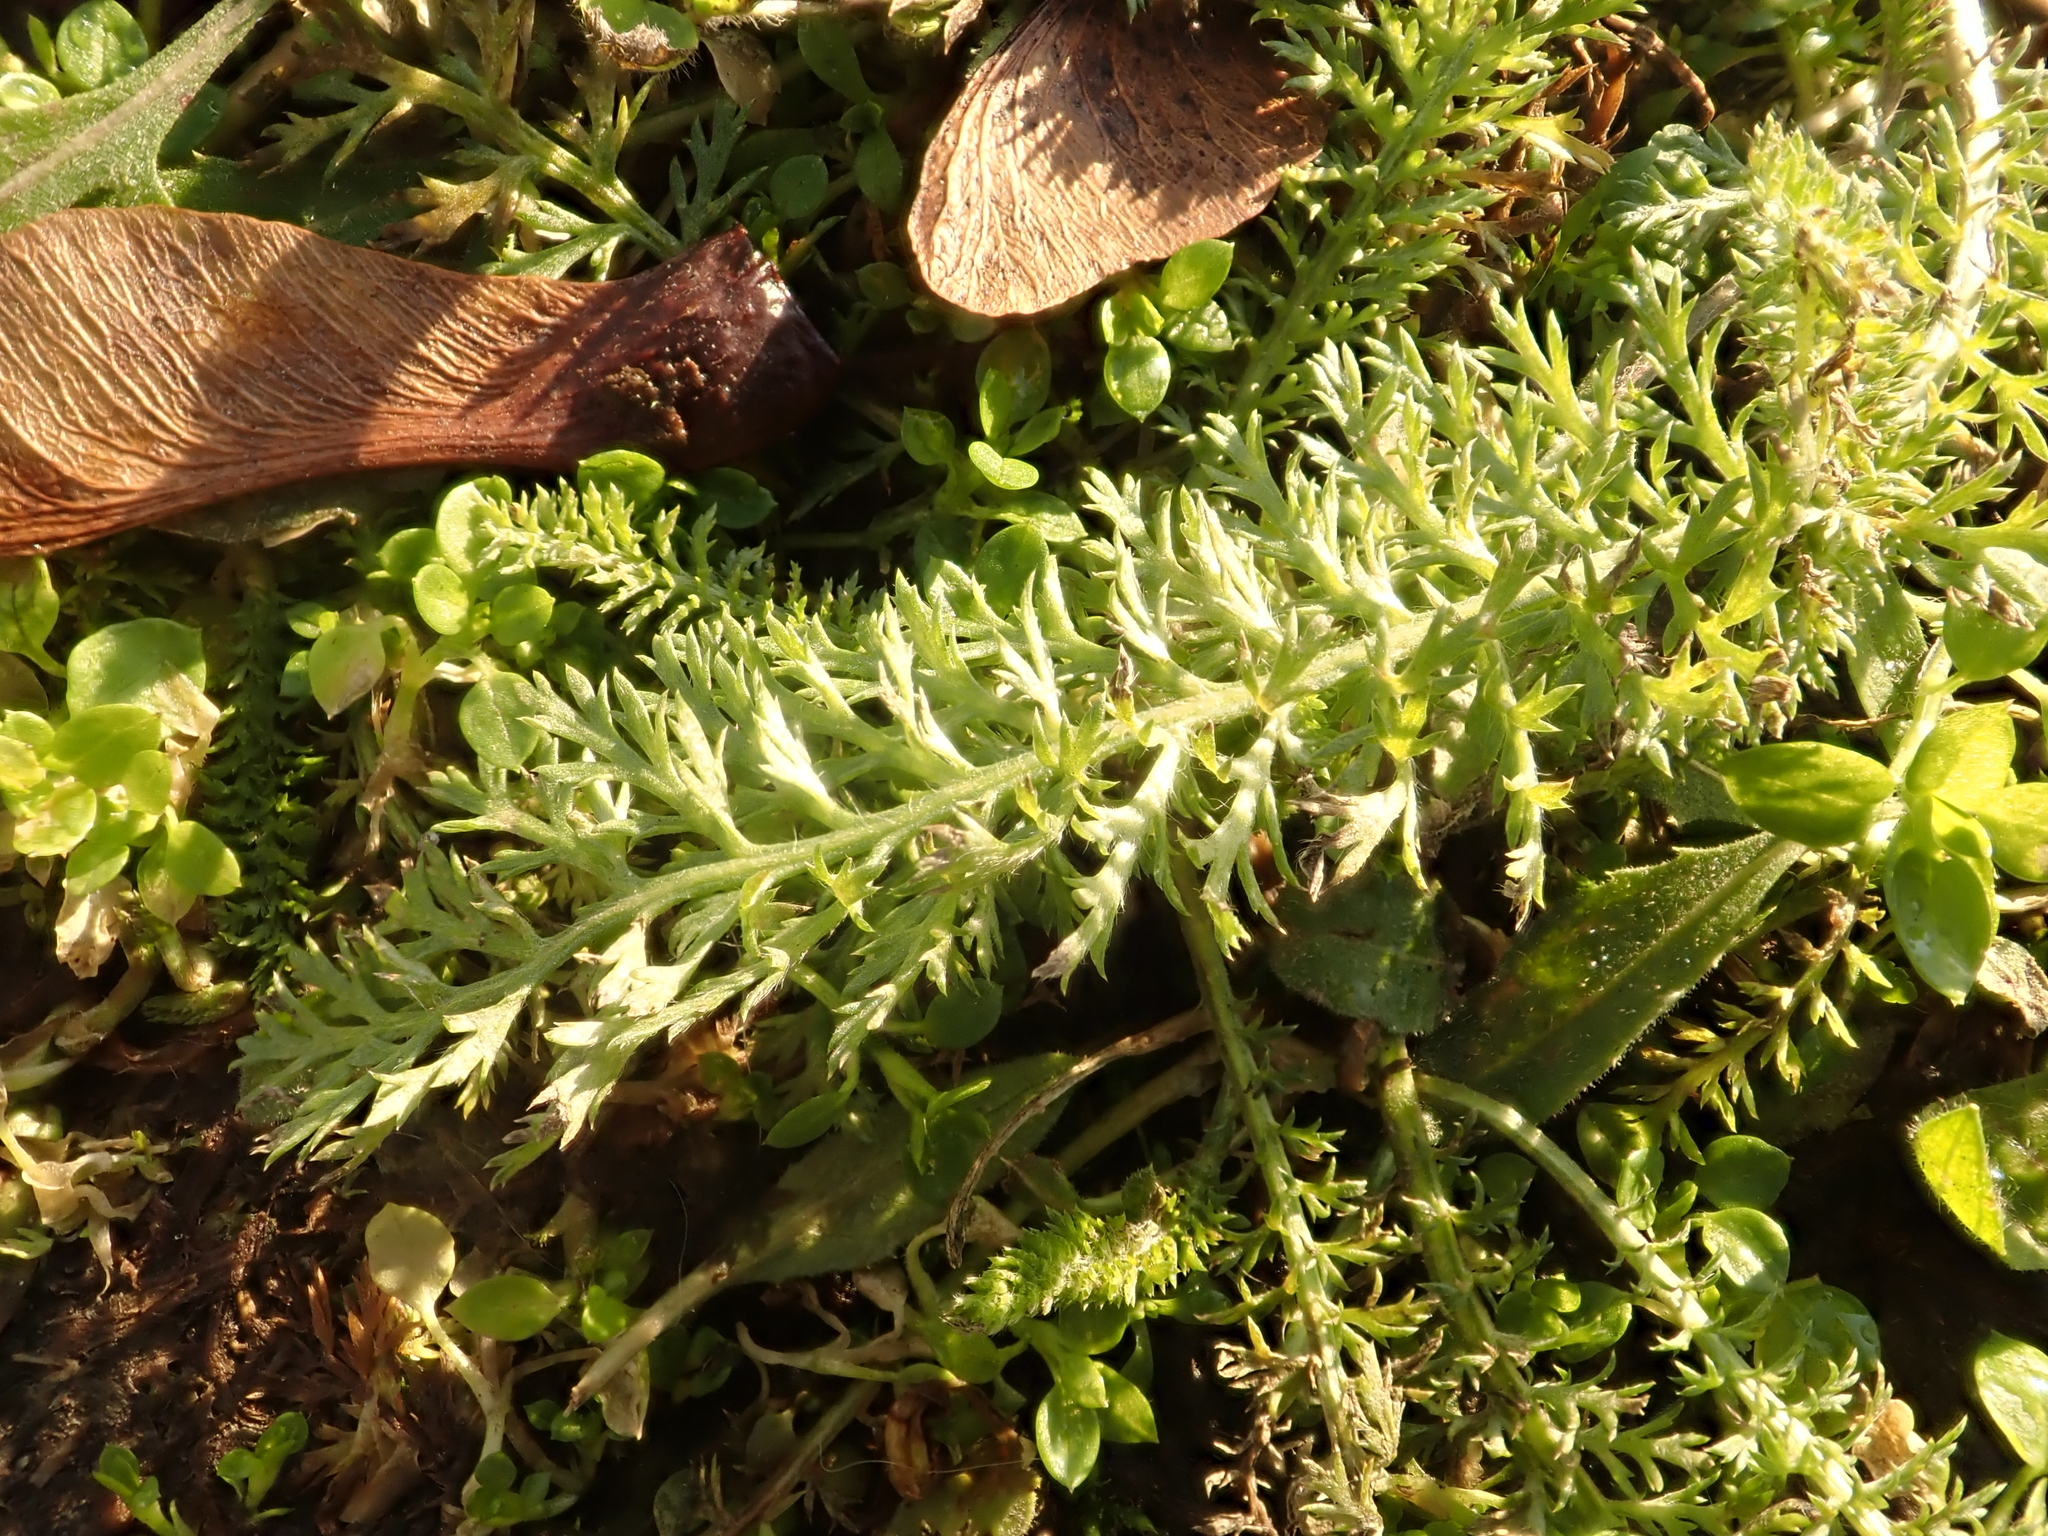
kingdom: Plantae
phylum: Tracheophyta
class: Magnoliopsida
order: Asterales
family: Asteraceae
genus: Achillea
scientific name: Achillea millefolium
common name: Yarrow
